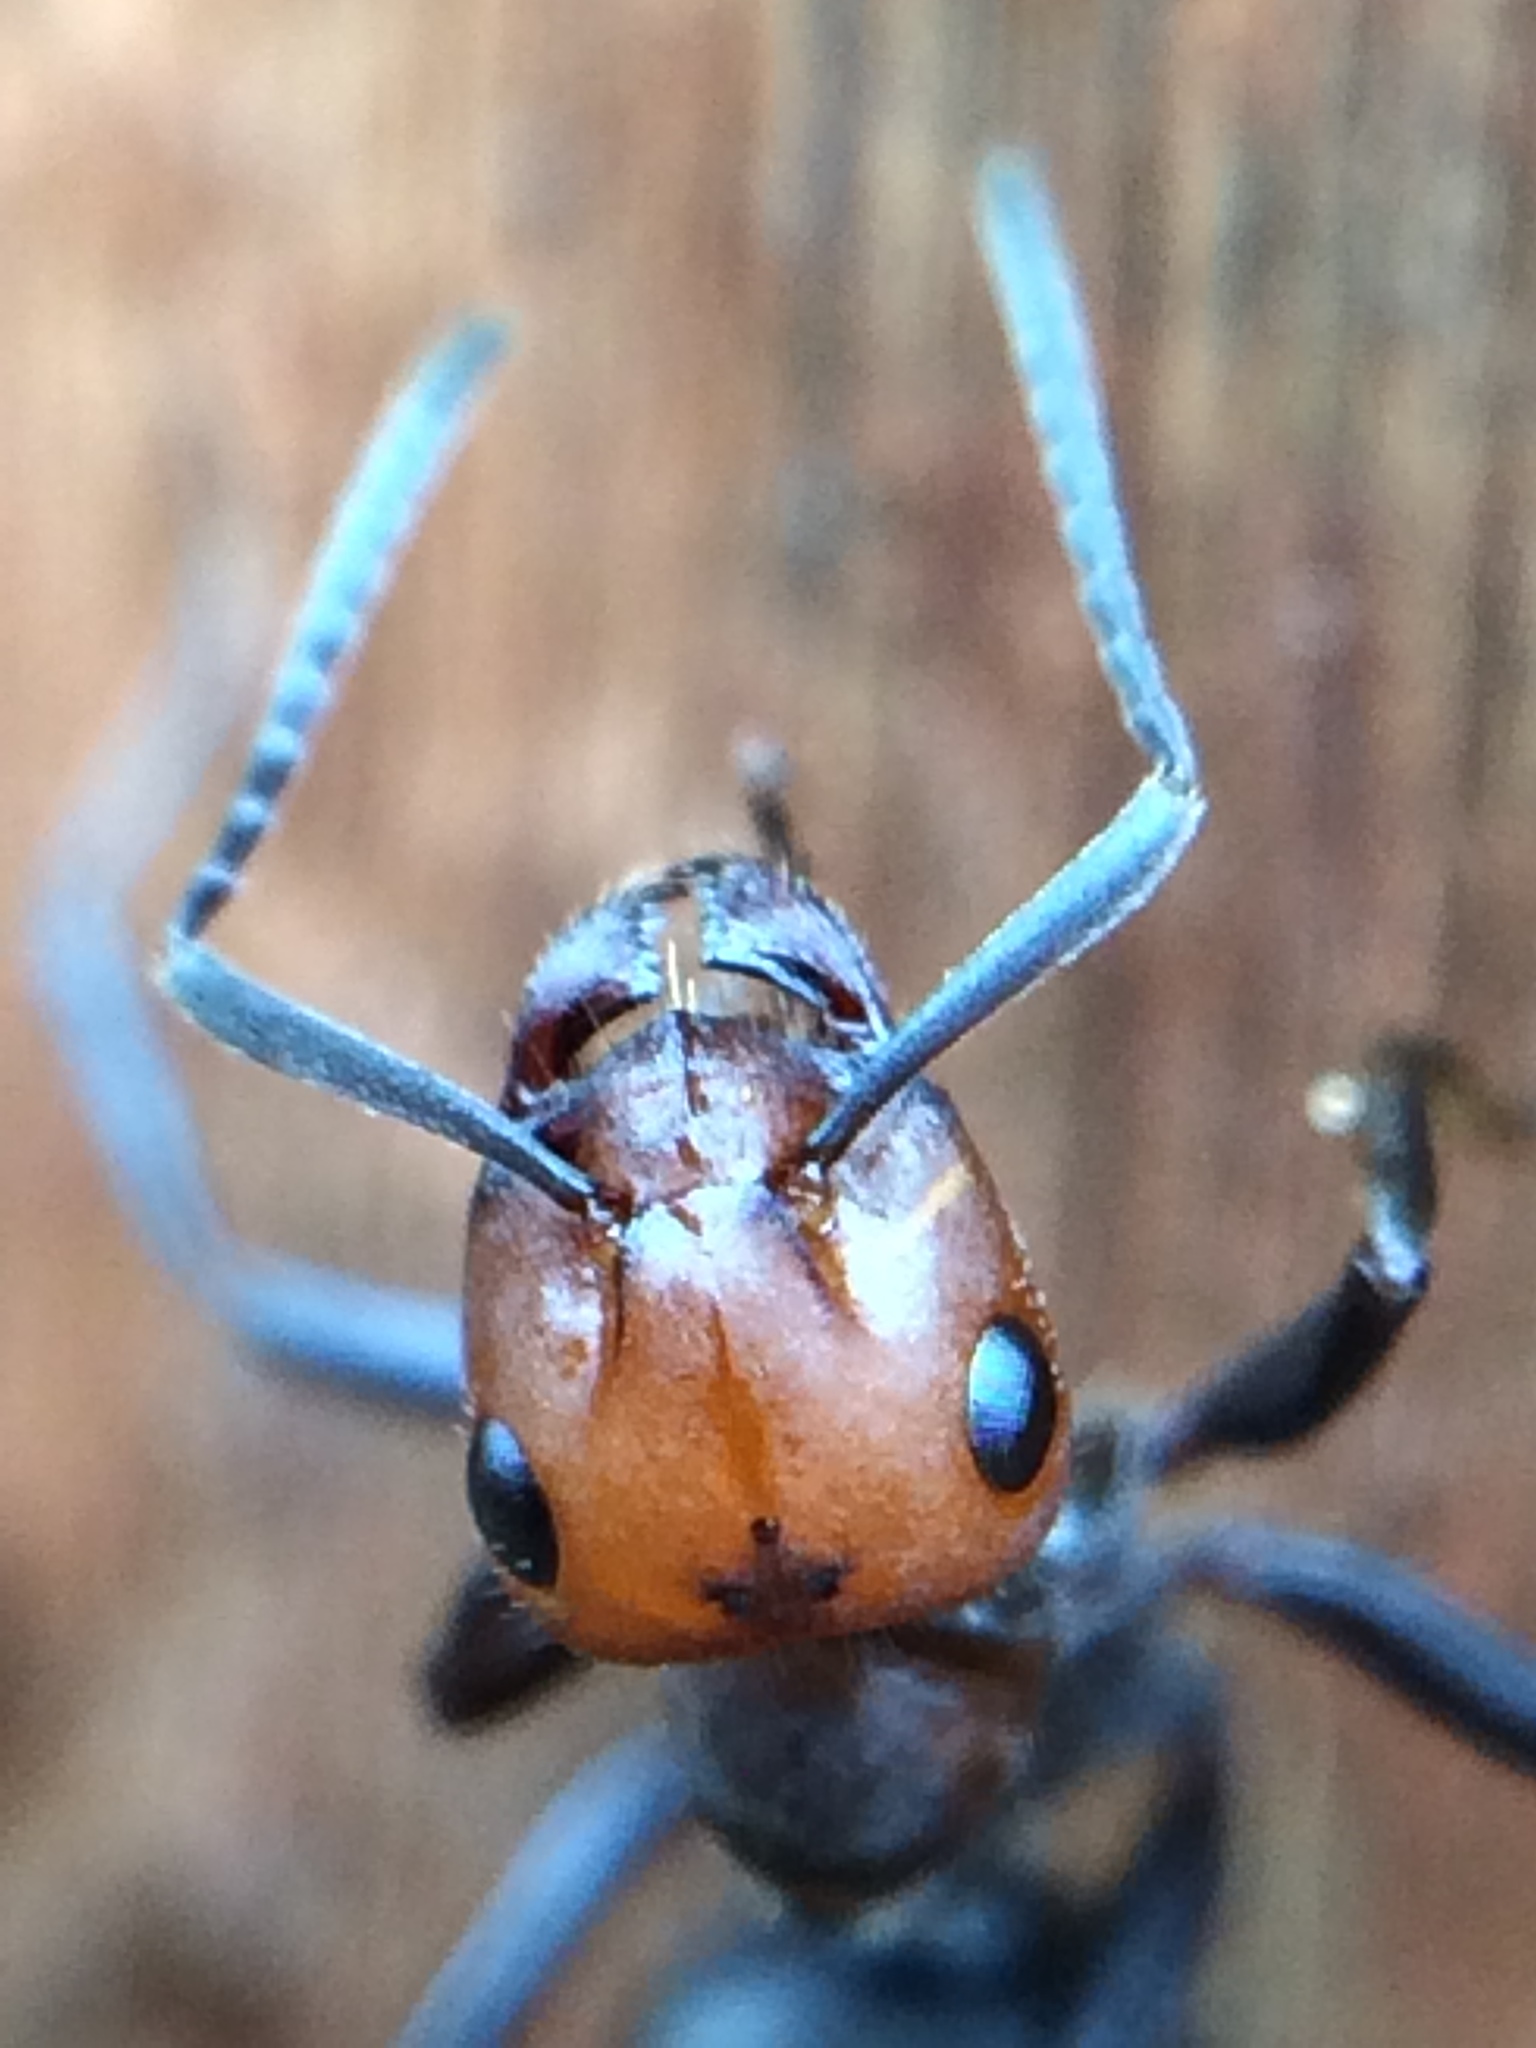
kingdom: Animalia
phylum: Arthropoda
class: Insecta
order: Hymenoptera
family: Formicidae
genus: Formica
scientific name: Formica obscuripes
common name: Western thatching ant
